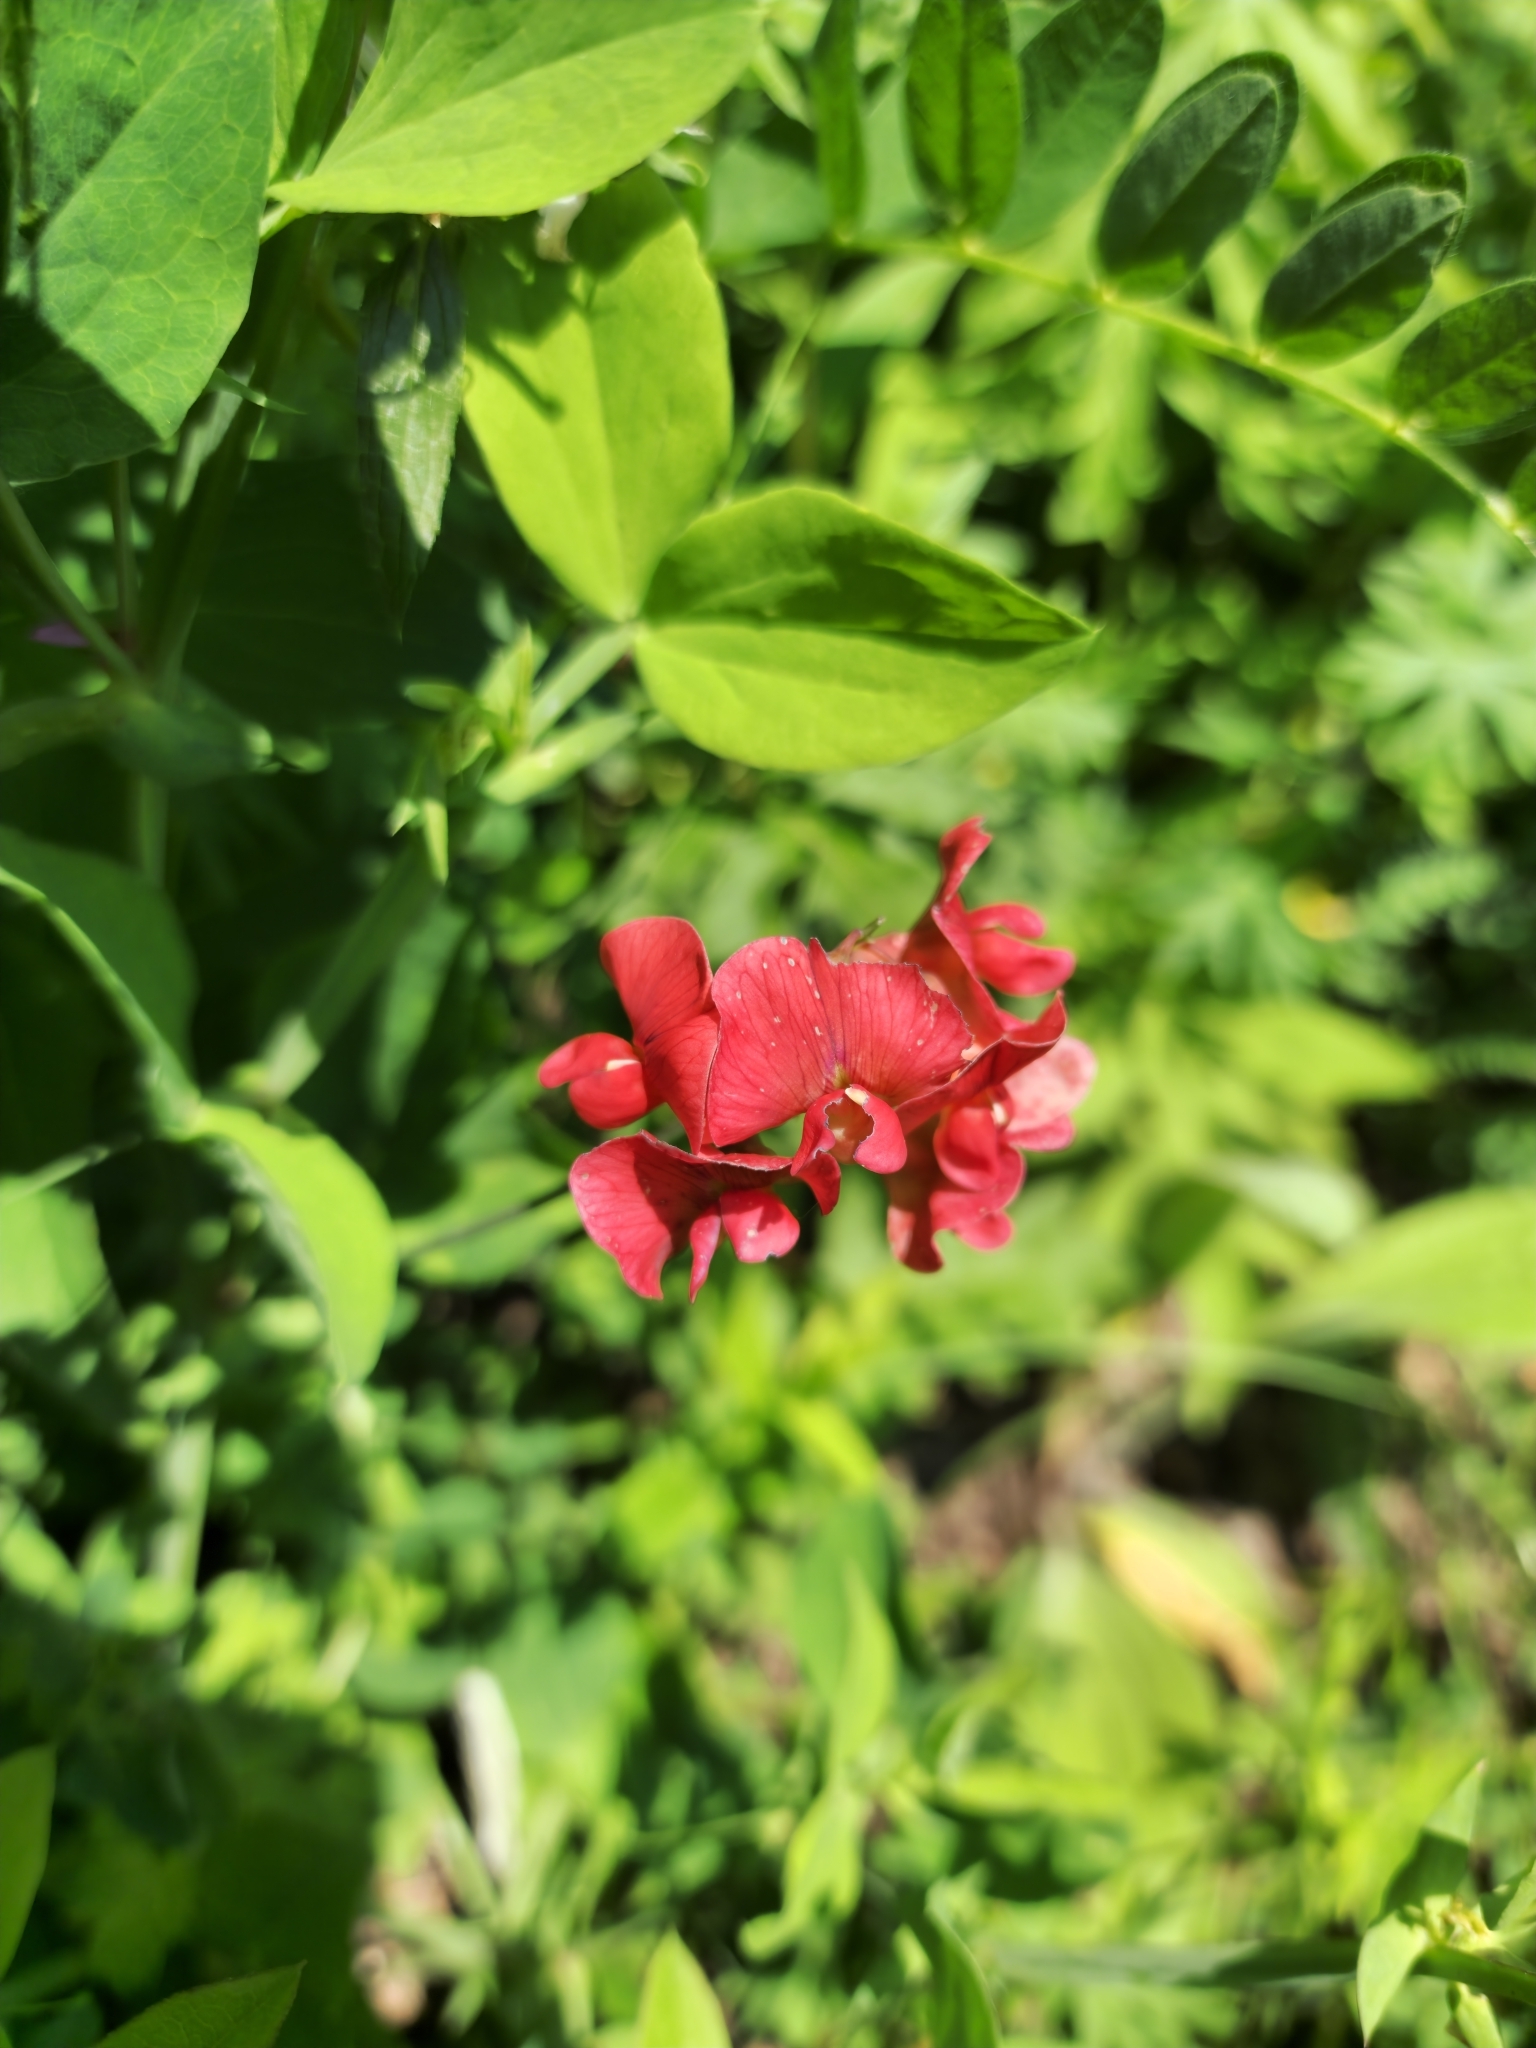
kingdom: Plantae
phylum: Tracheophyta
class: Magnoliopsida
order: Fabales
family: Fabaceae
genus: Lathyrus
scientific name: Lathyrus miniatus
